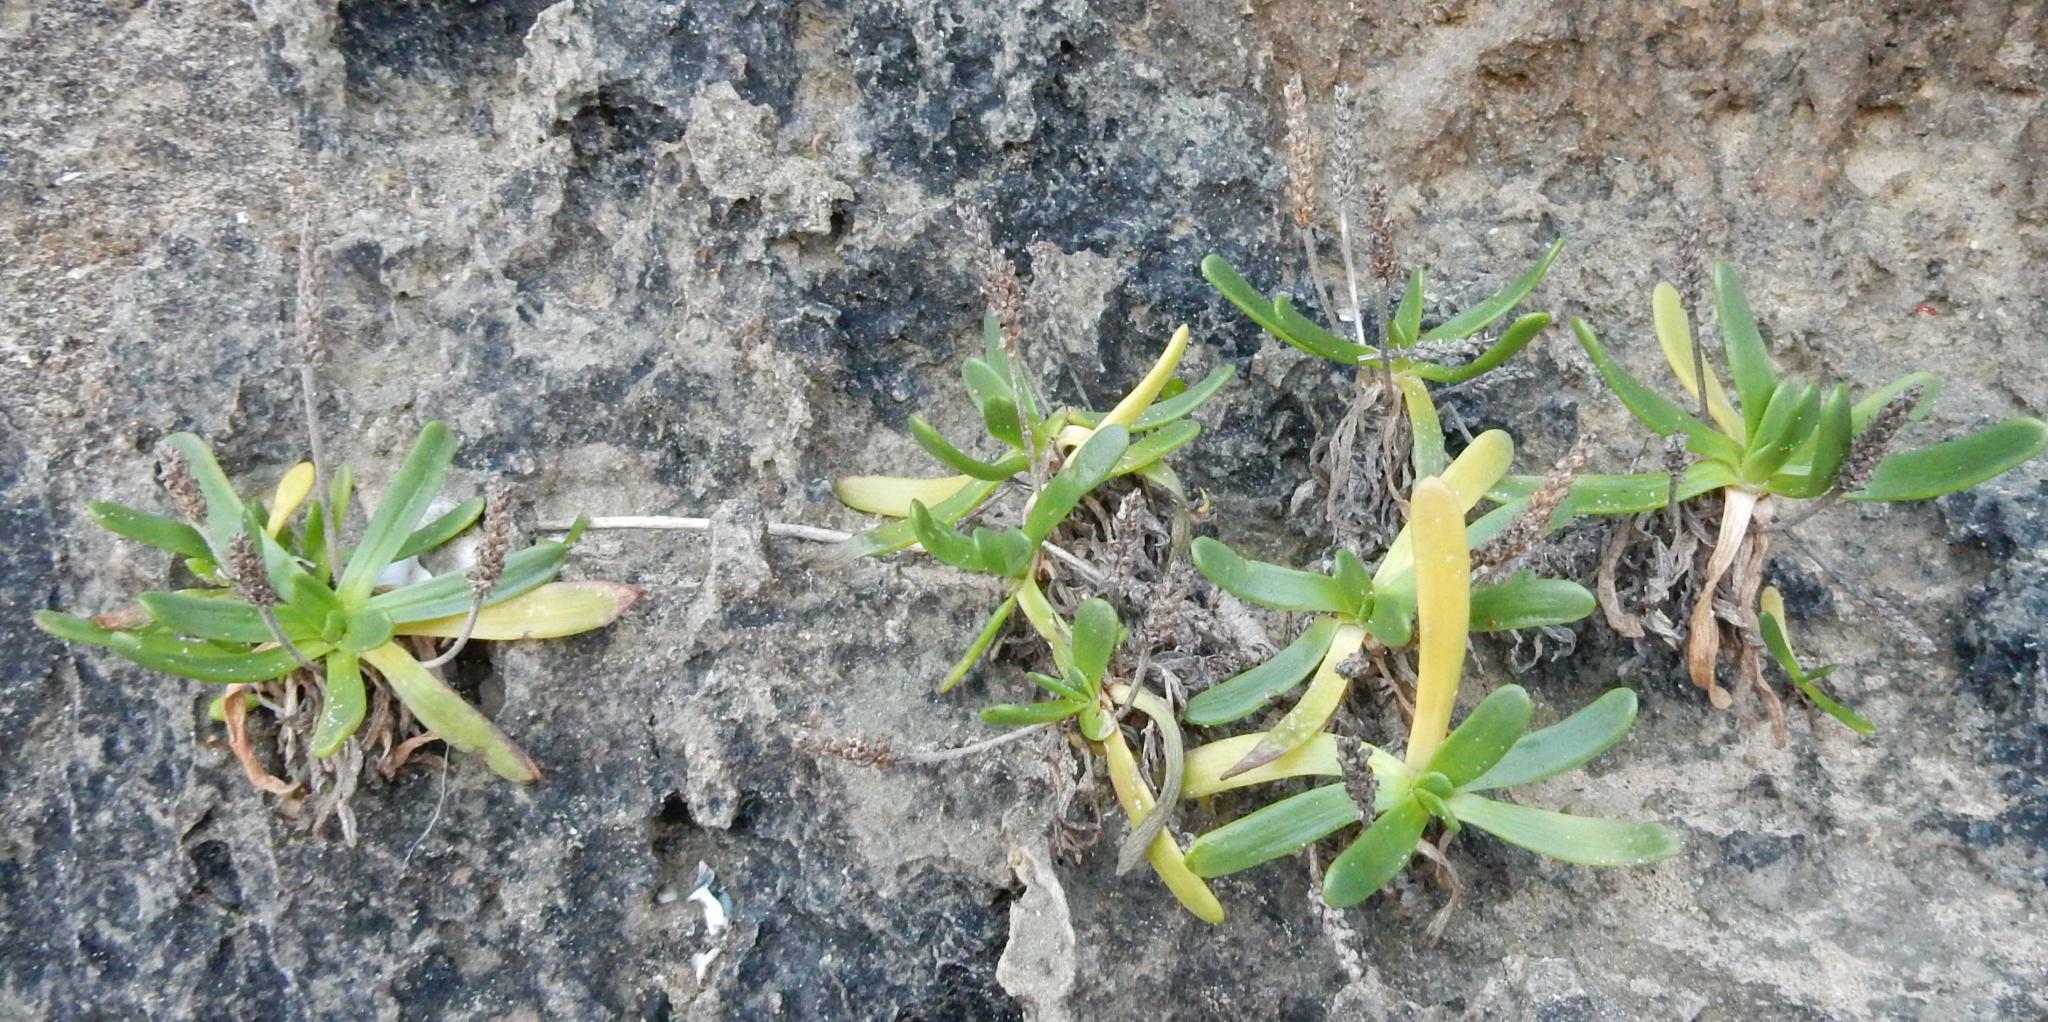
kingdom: Plantae
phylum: Tracheophyta
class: Magnoliopsida
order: Lamiales
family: Plantaginaceae
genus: Plantago
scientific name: Plantago carnosa
